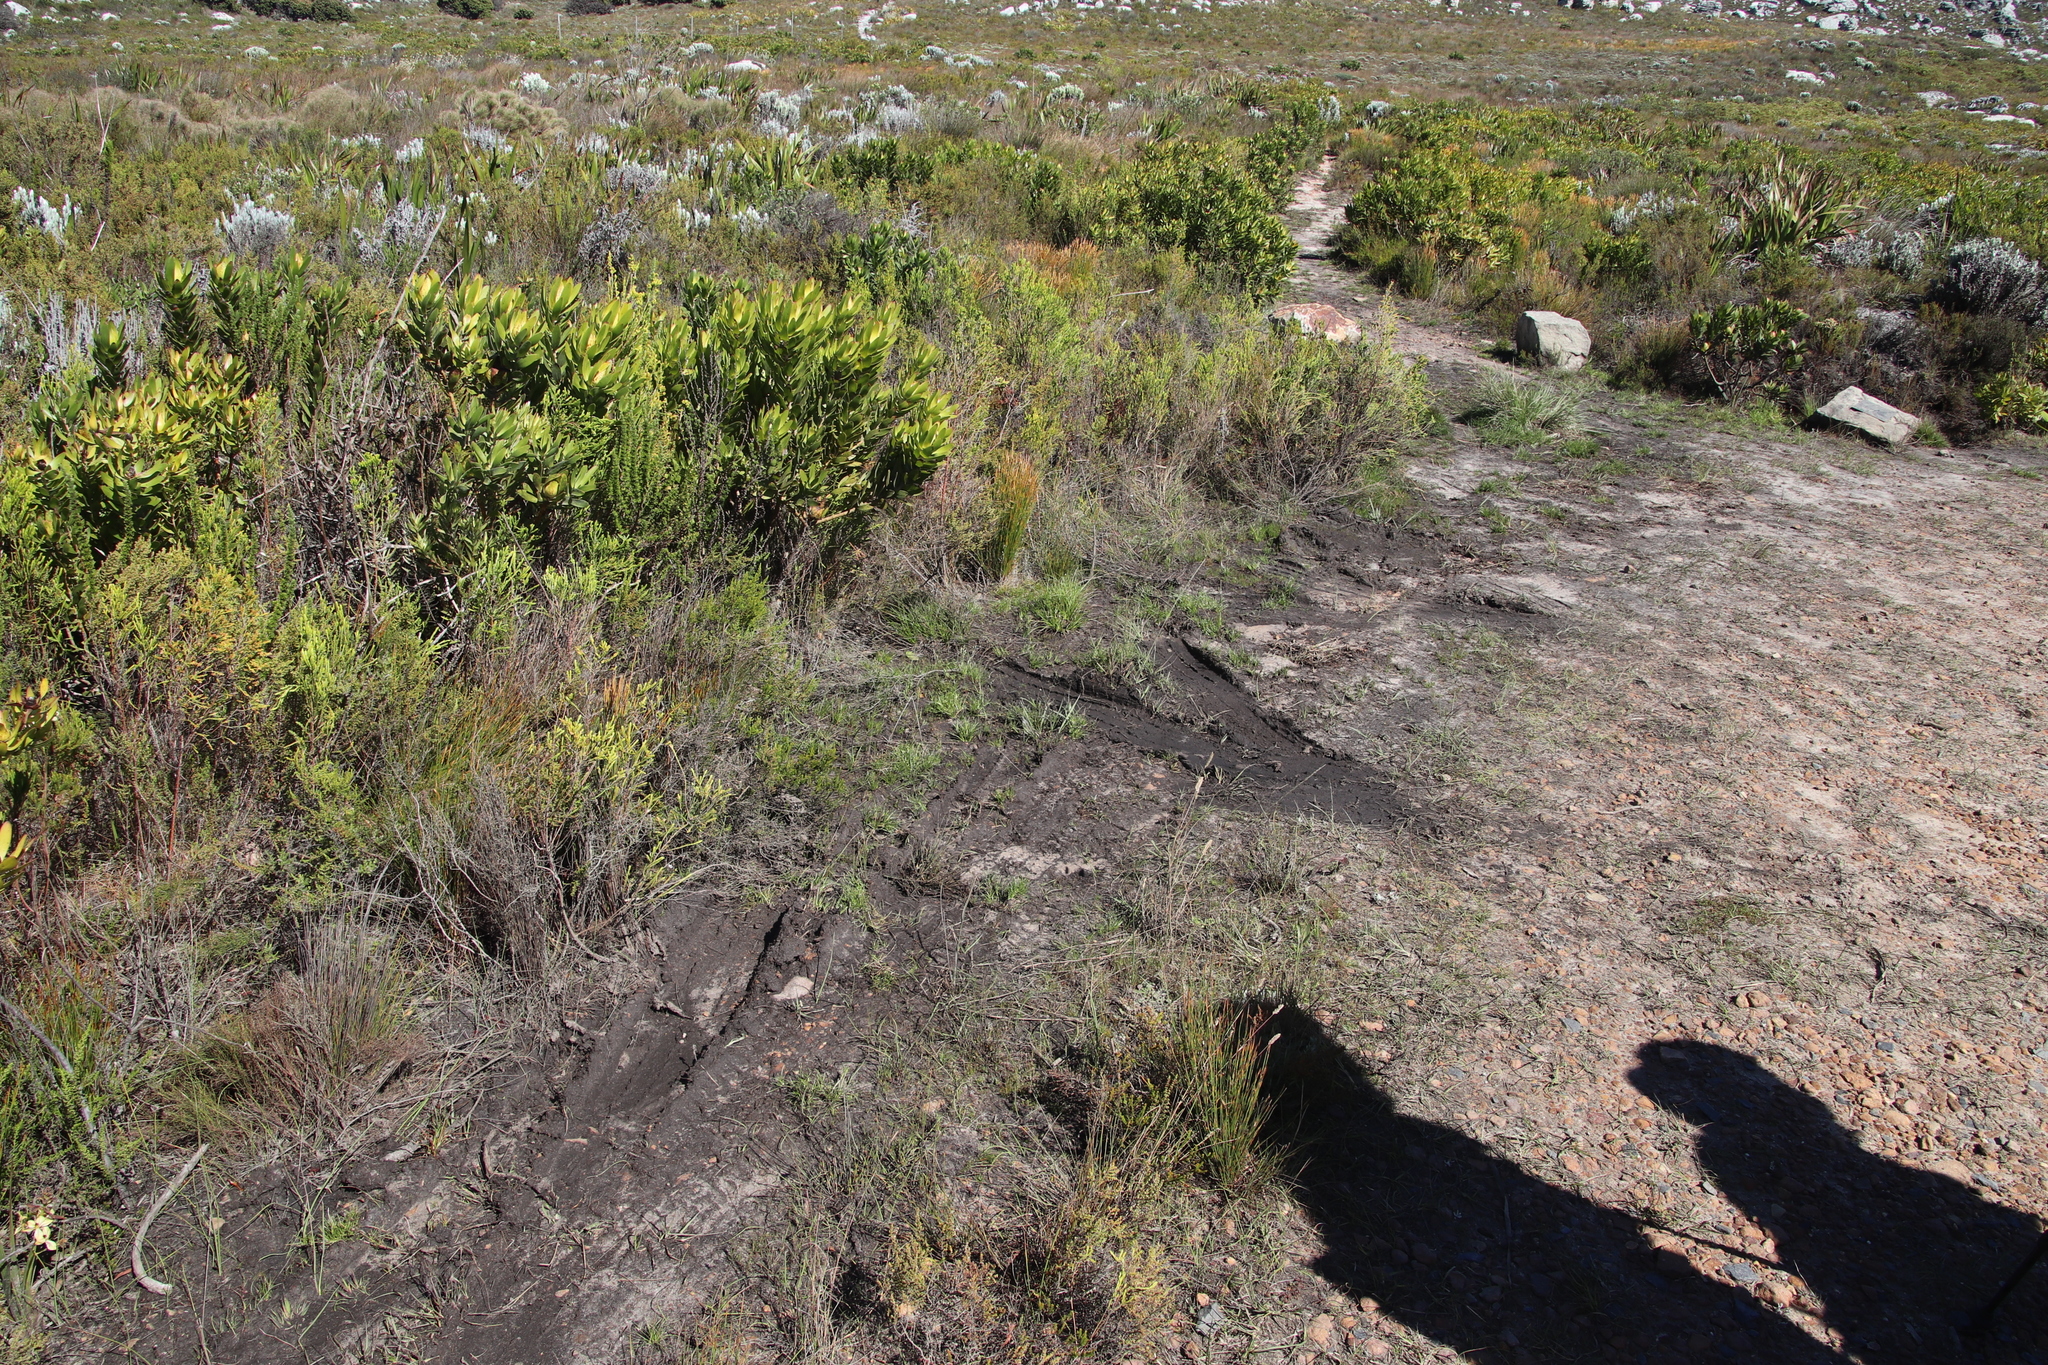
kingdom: Plantae
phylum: Tracheophyta
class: Magnoliopsida
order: Proteales
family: Proteaceae
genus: Leucadendron
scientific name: Leucadendron laureolum
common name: Golden sunshinebush
